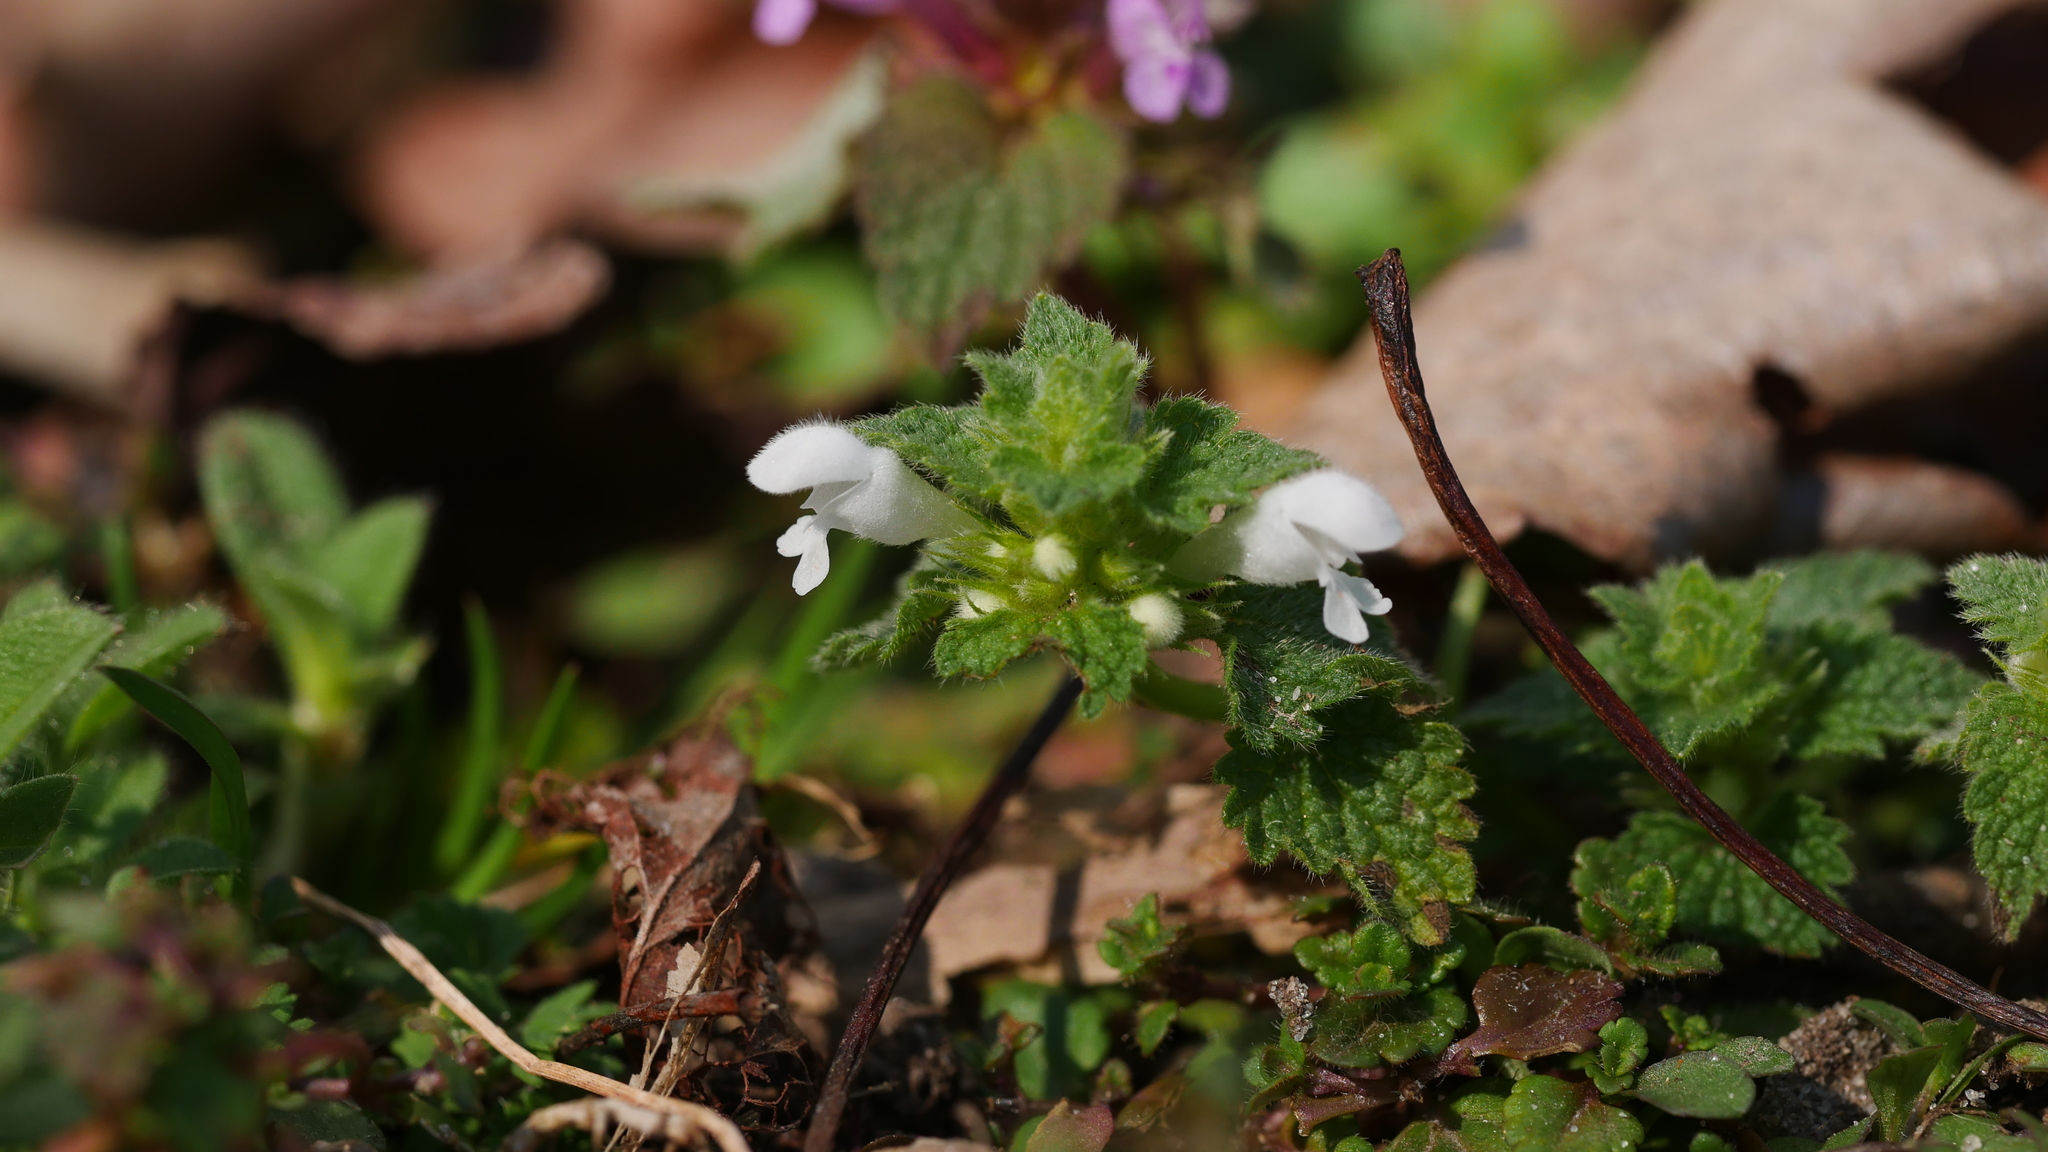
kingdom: Plantae
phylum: Tracheophyta
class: Magnoliopsida
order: Lamiales
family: Lamiaceae
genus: Lamium
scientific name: Lamium purpureum
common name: Red dead-nettle
